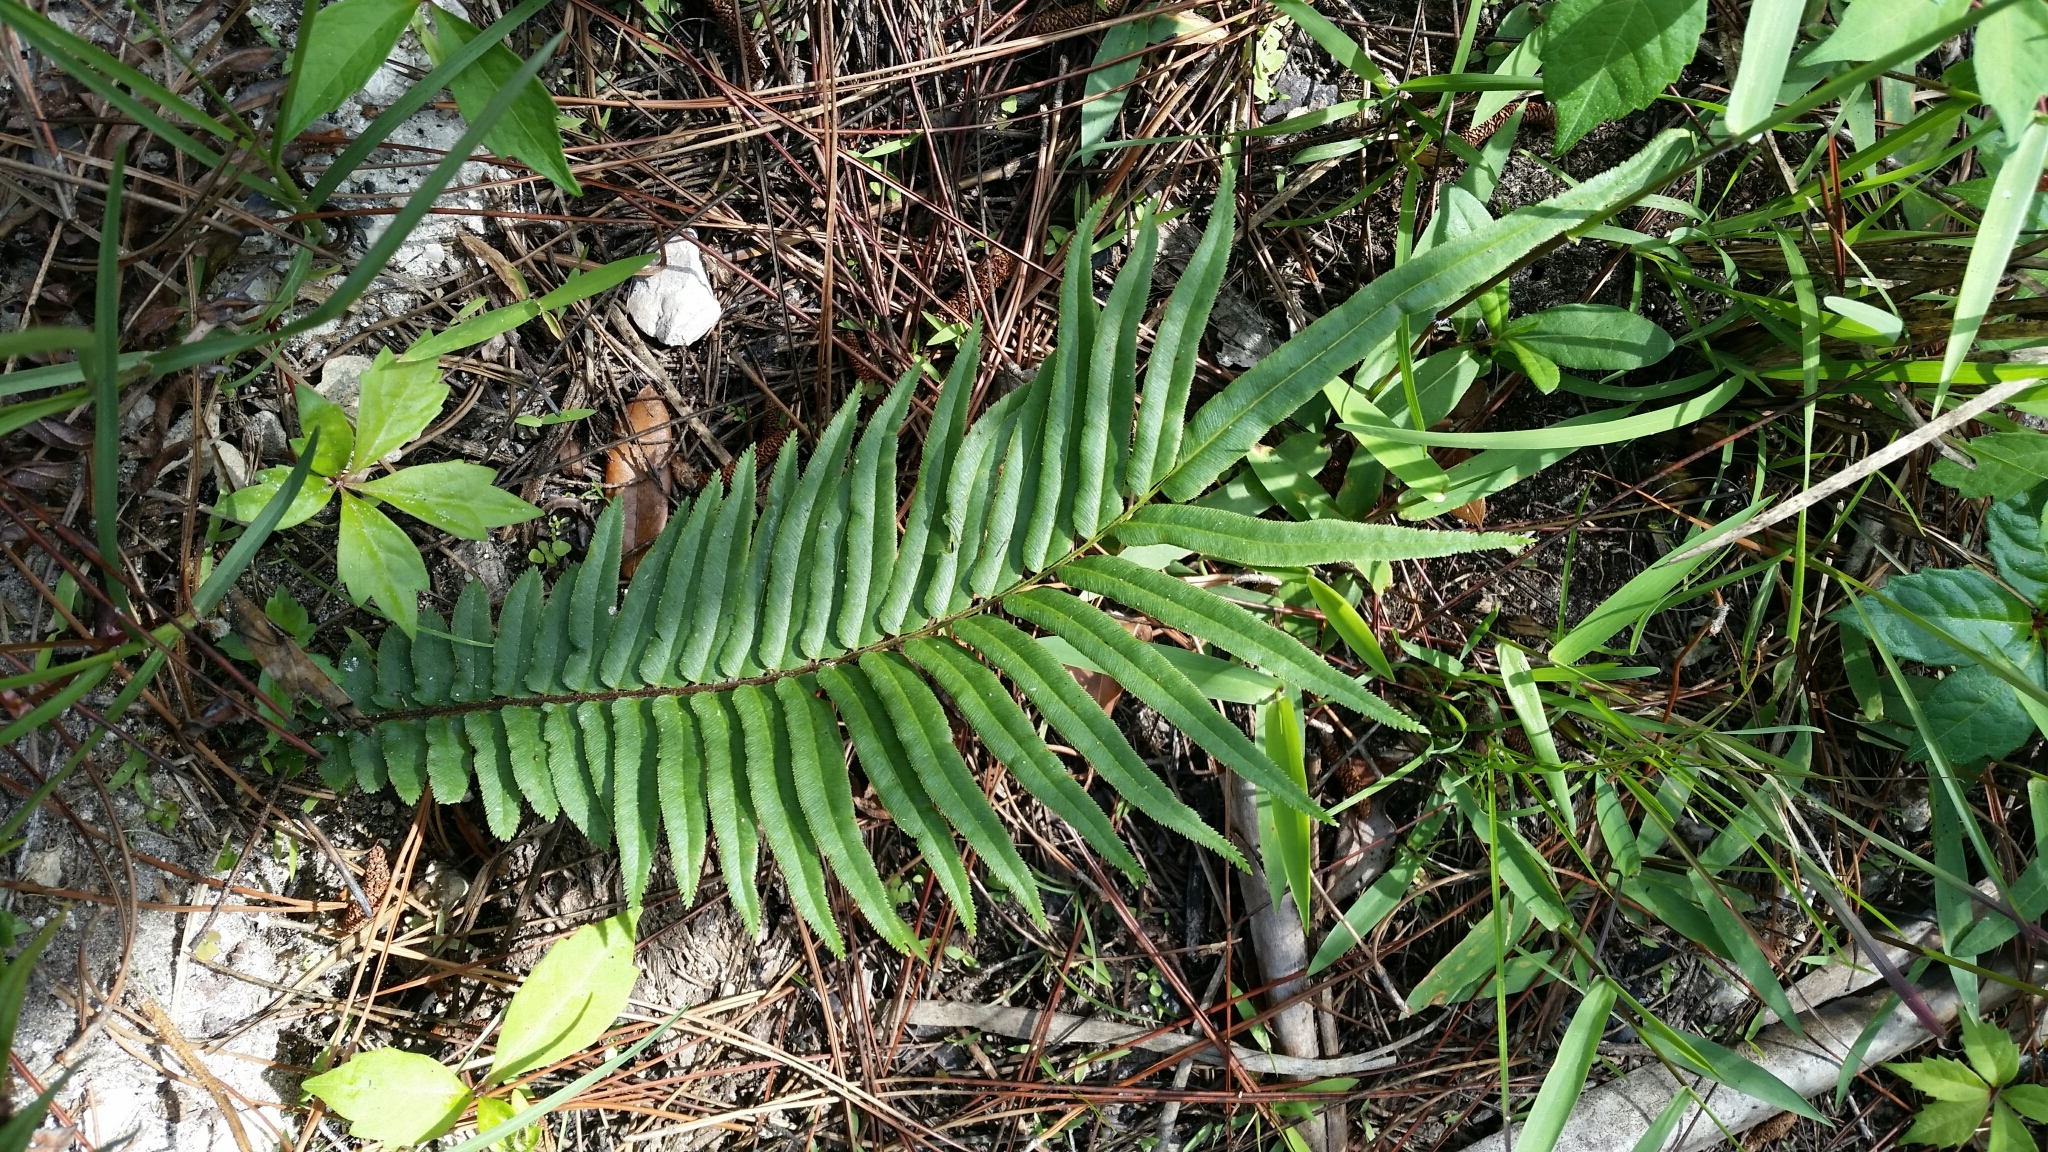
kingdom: Plantae
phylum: Tracheophyta
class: Polypodiopsida
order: Polypodiales
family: Pteridaceae
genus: Pteris
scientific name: Pteris vittata
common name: Ladder brake
